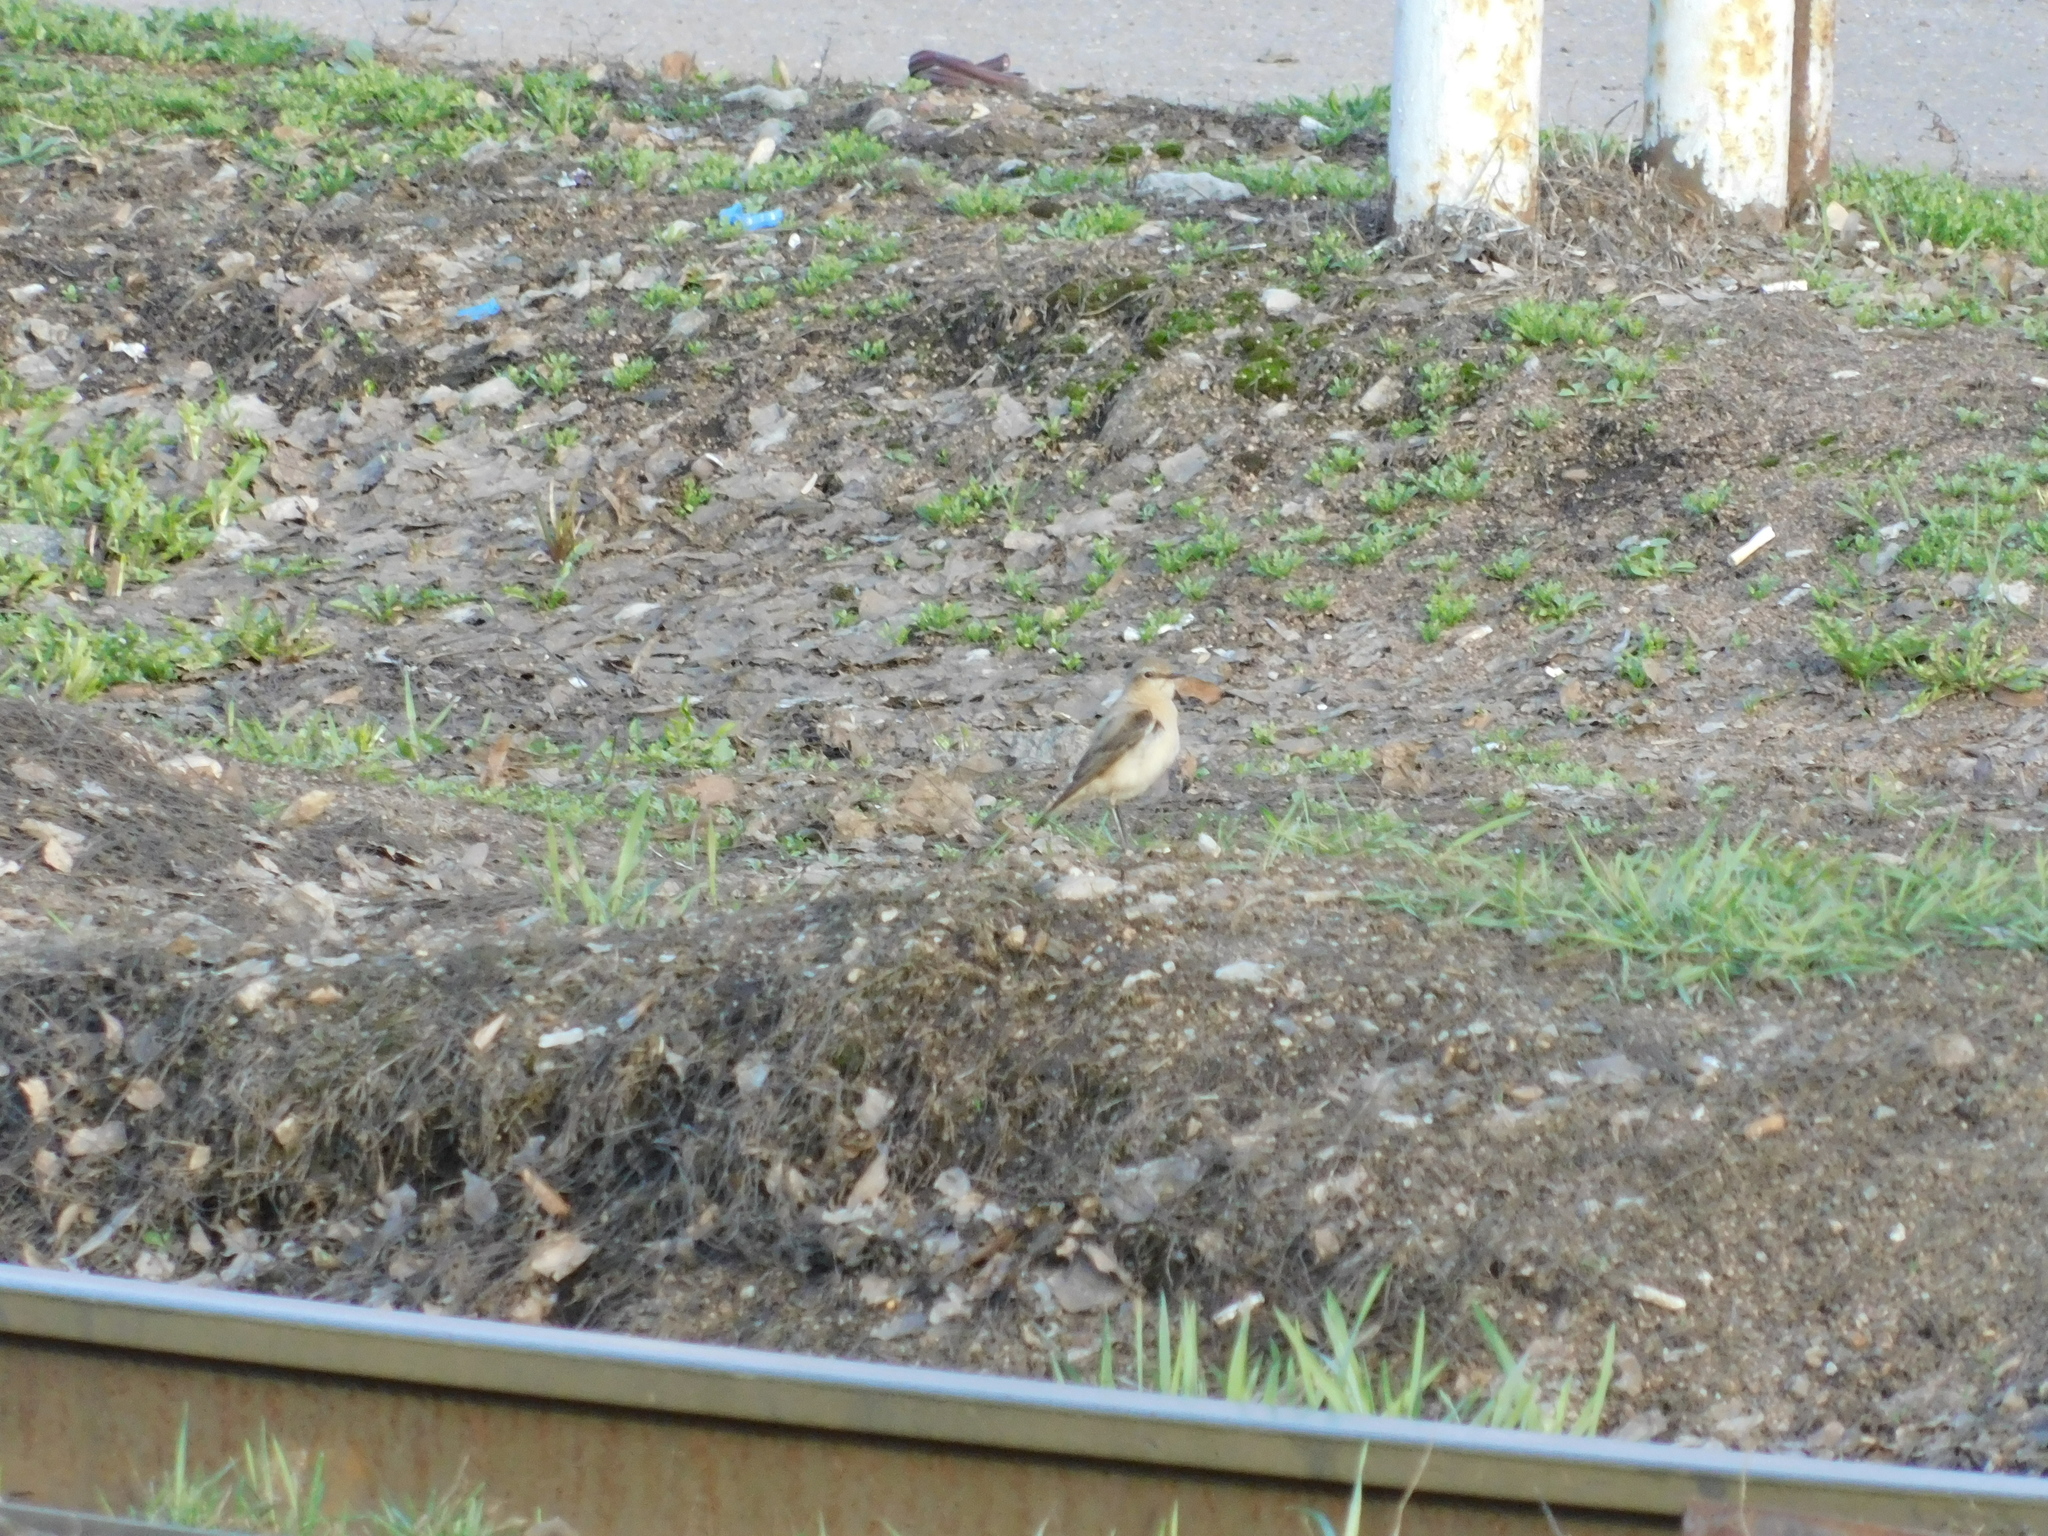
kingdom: Animalia
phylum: Chordata
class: Aves
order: Passeriformes
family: Muscicapidae
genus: Oenanthe
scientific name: Oenanthe oenanthe
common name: Northern wheatear
